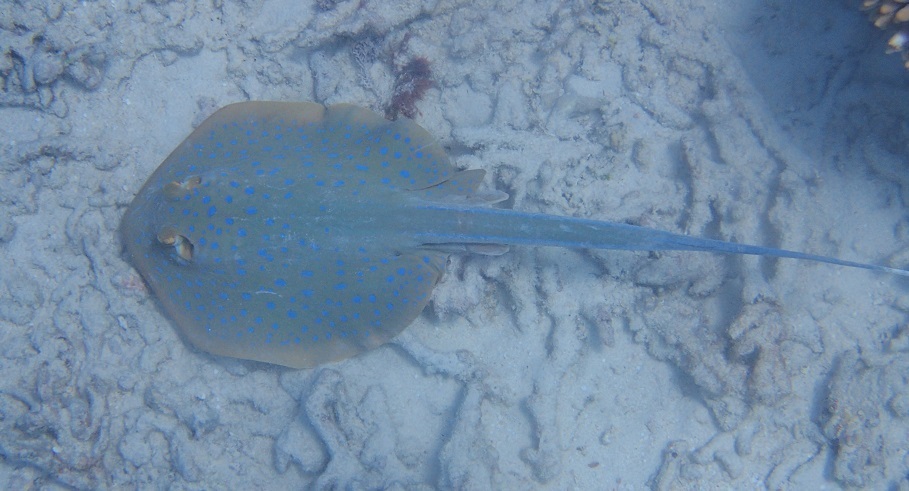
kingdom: Animalia
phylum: Chordata
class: Elasmobranchii
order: Myliobatiformes
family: Dasyatidae
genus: Taeniura
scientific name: Taeniura lymma
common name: Bluespotted ribbontail ray
